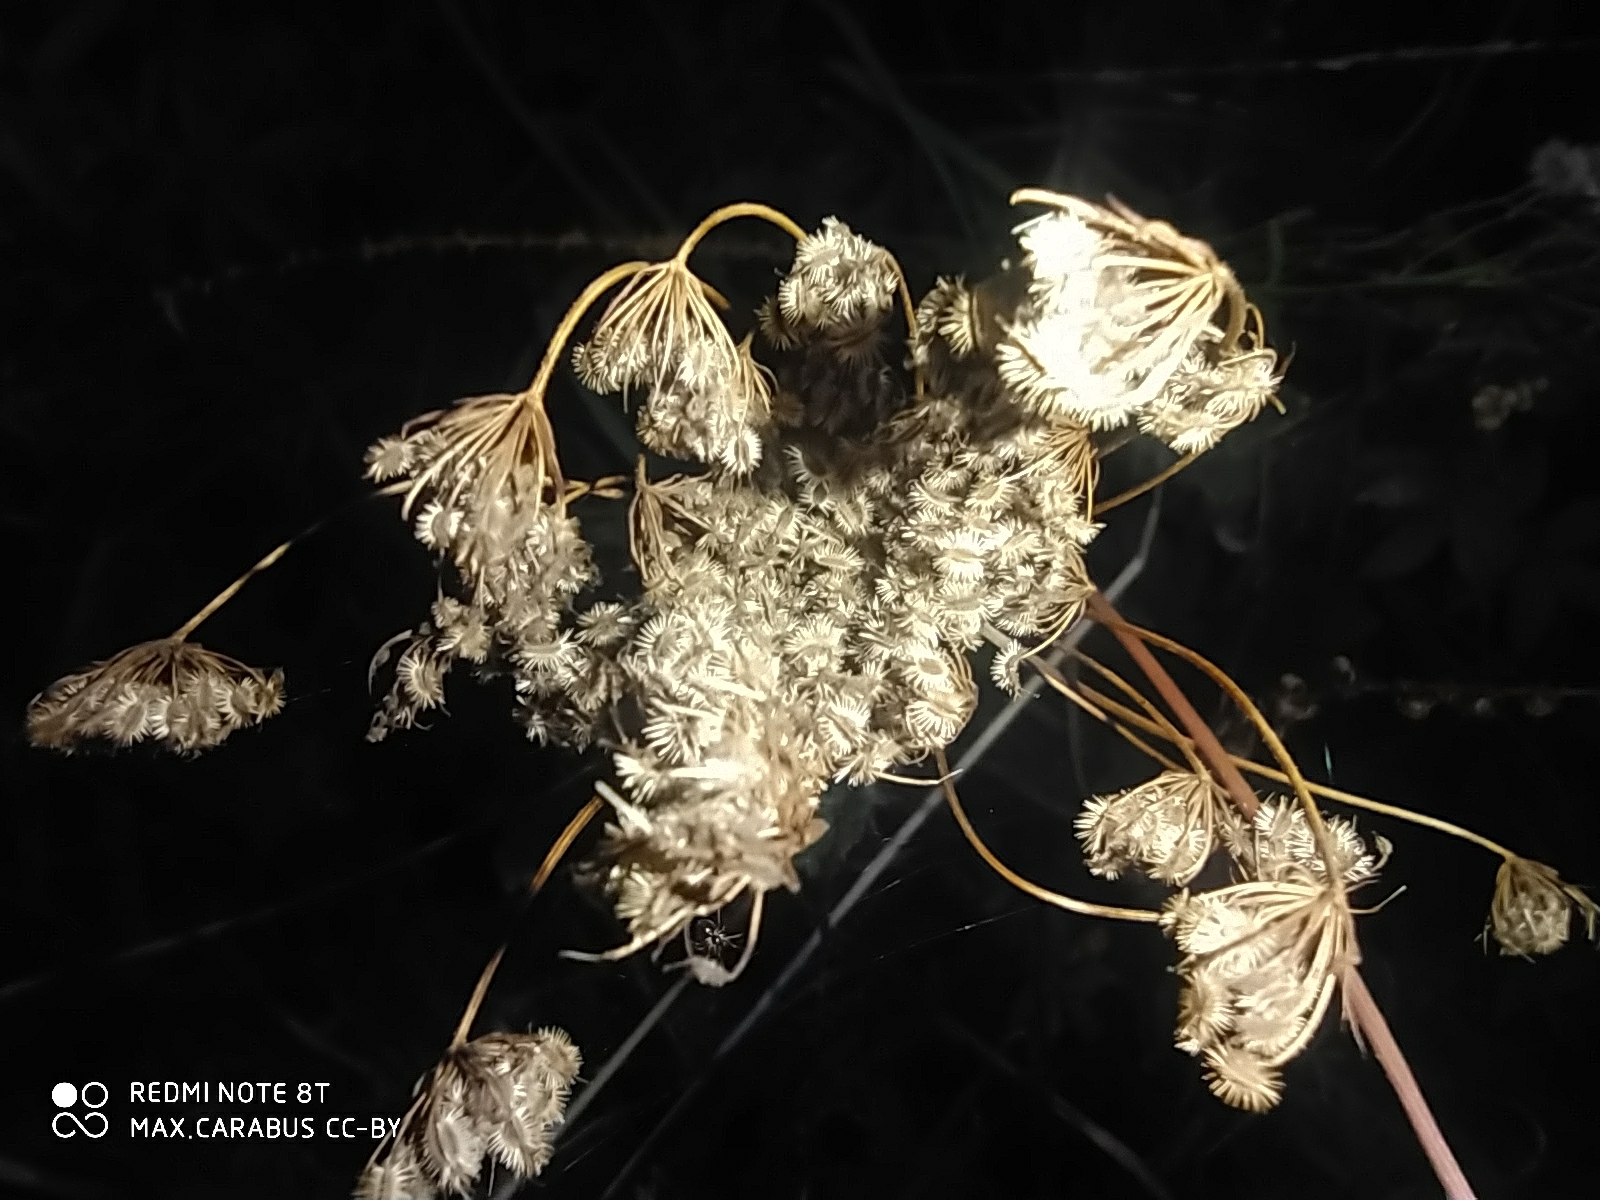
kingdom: Plantae
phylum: Tracheophyta
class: Magnoliopsida
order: Apiales
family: Apiaceae
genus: Daucus
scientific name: Daucus carota
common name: Wild carrot
